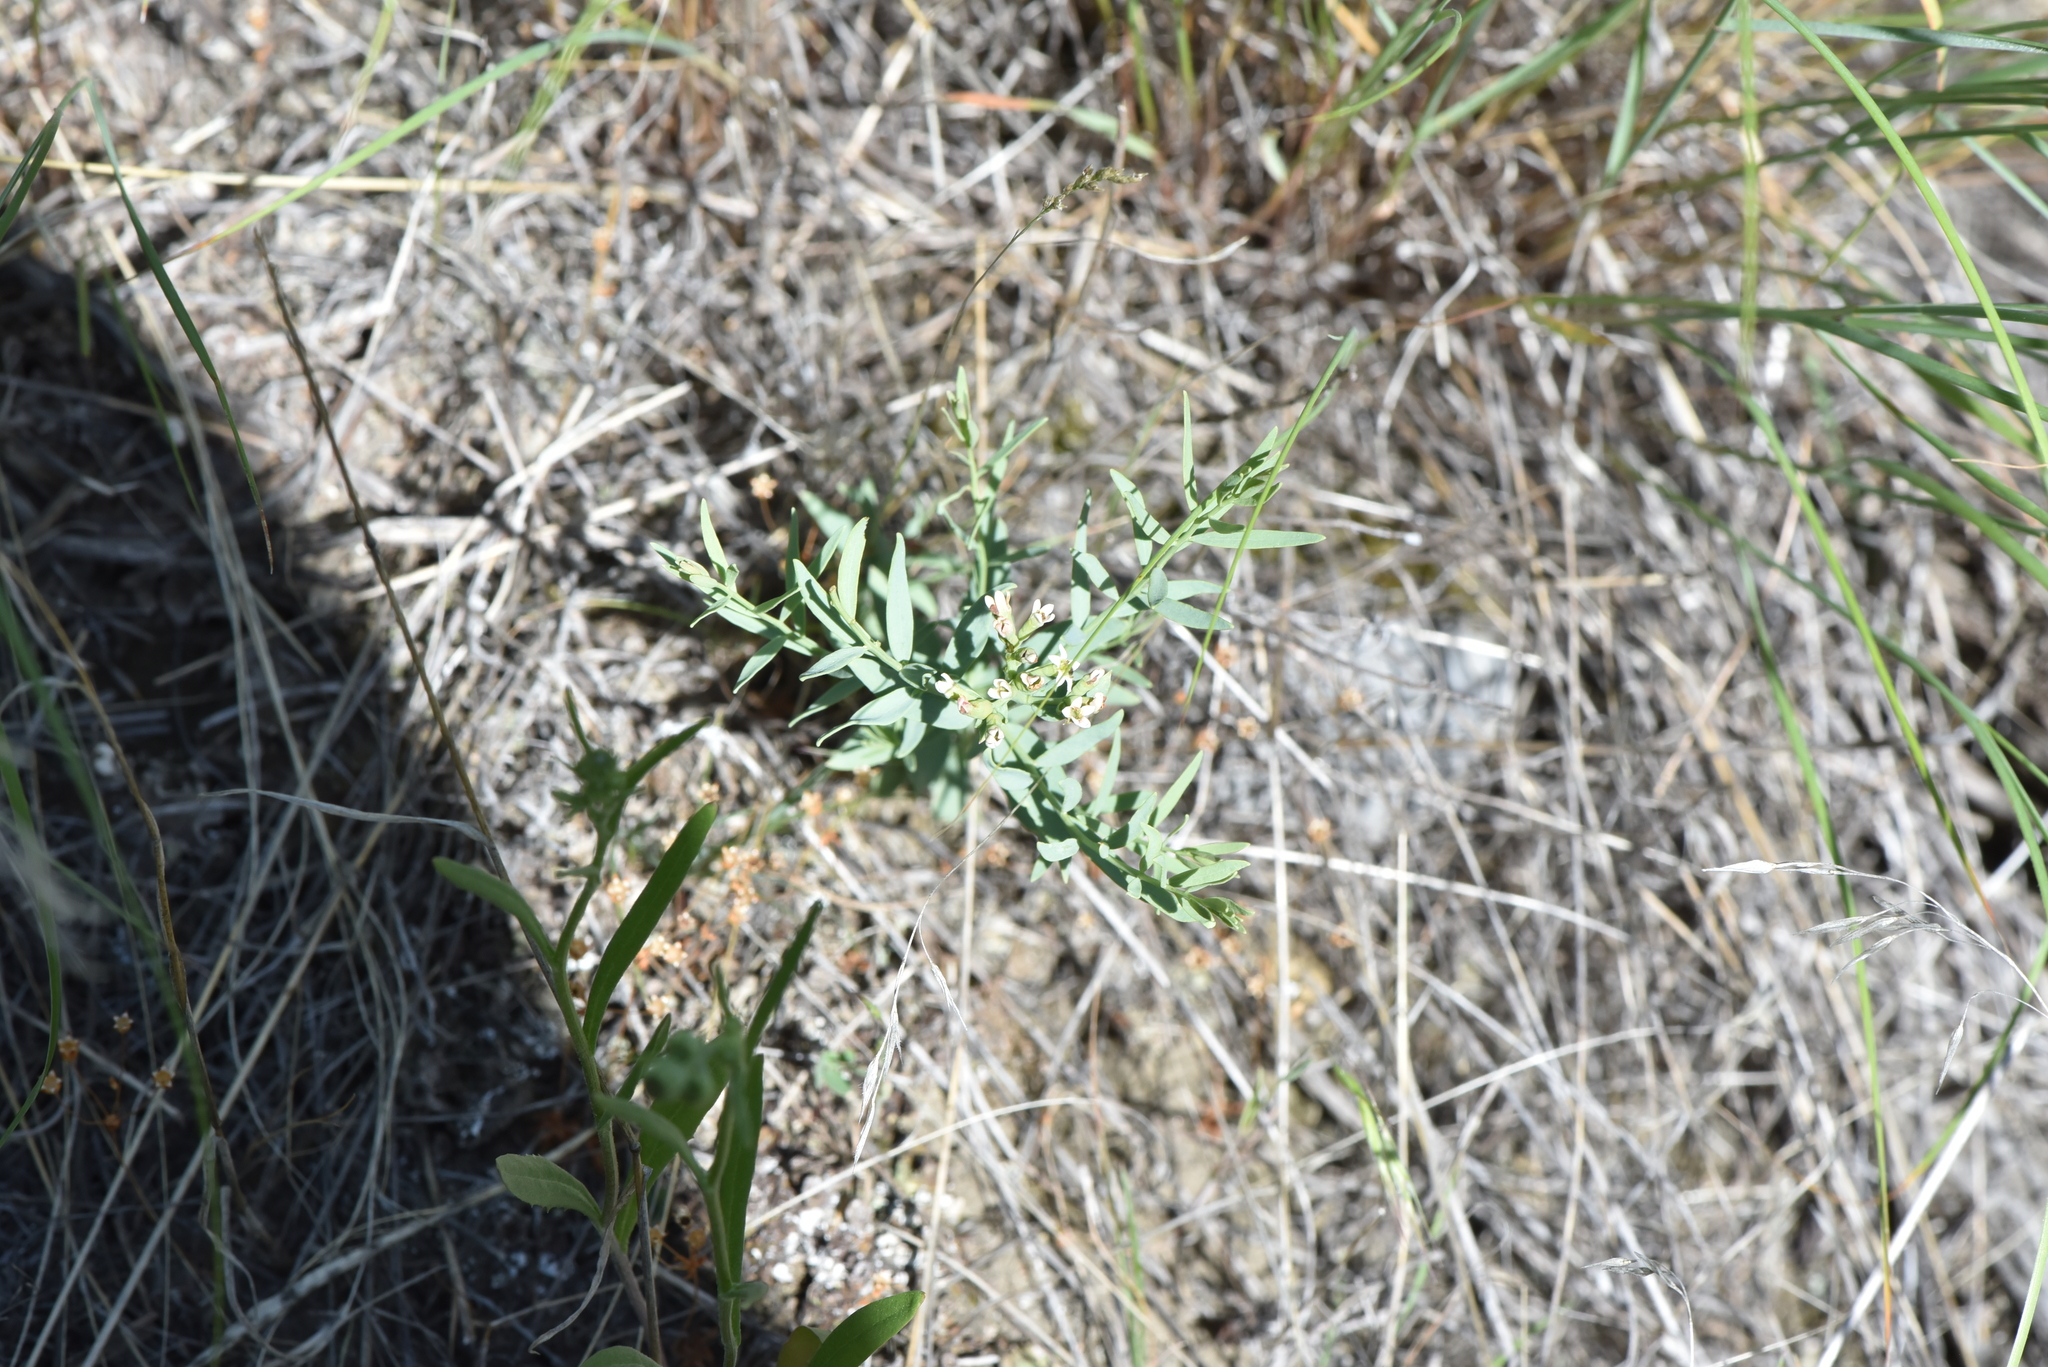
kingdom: Plantae
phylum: Tracheophyta
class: Magnoliopsida
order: Santalales
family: Comandraceae
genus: Comandra
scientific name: Comandra umbellata
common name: Bastard toadflax
